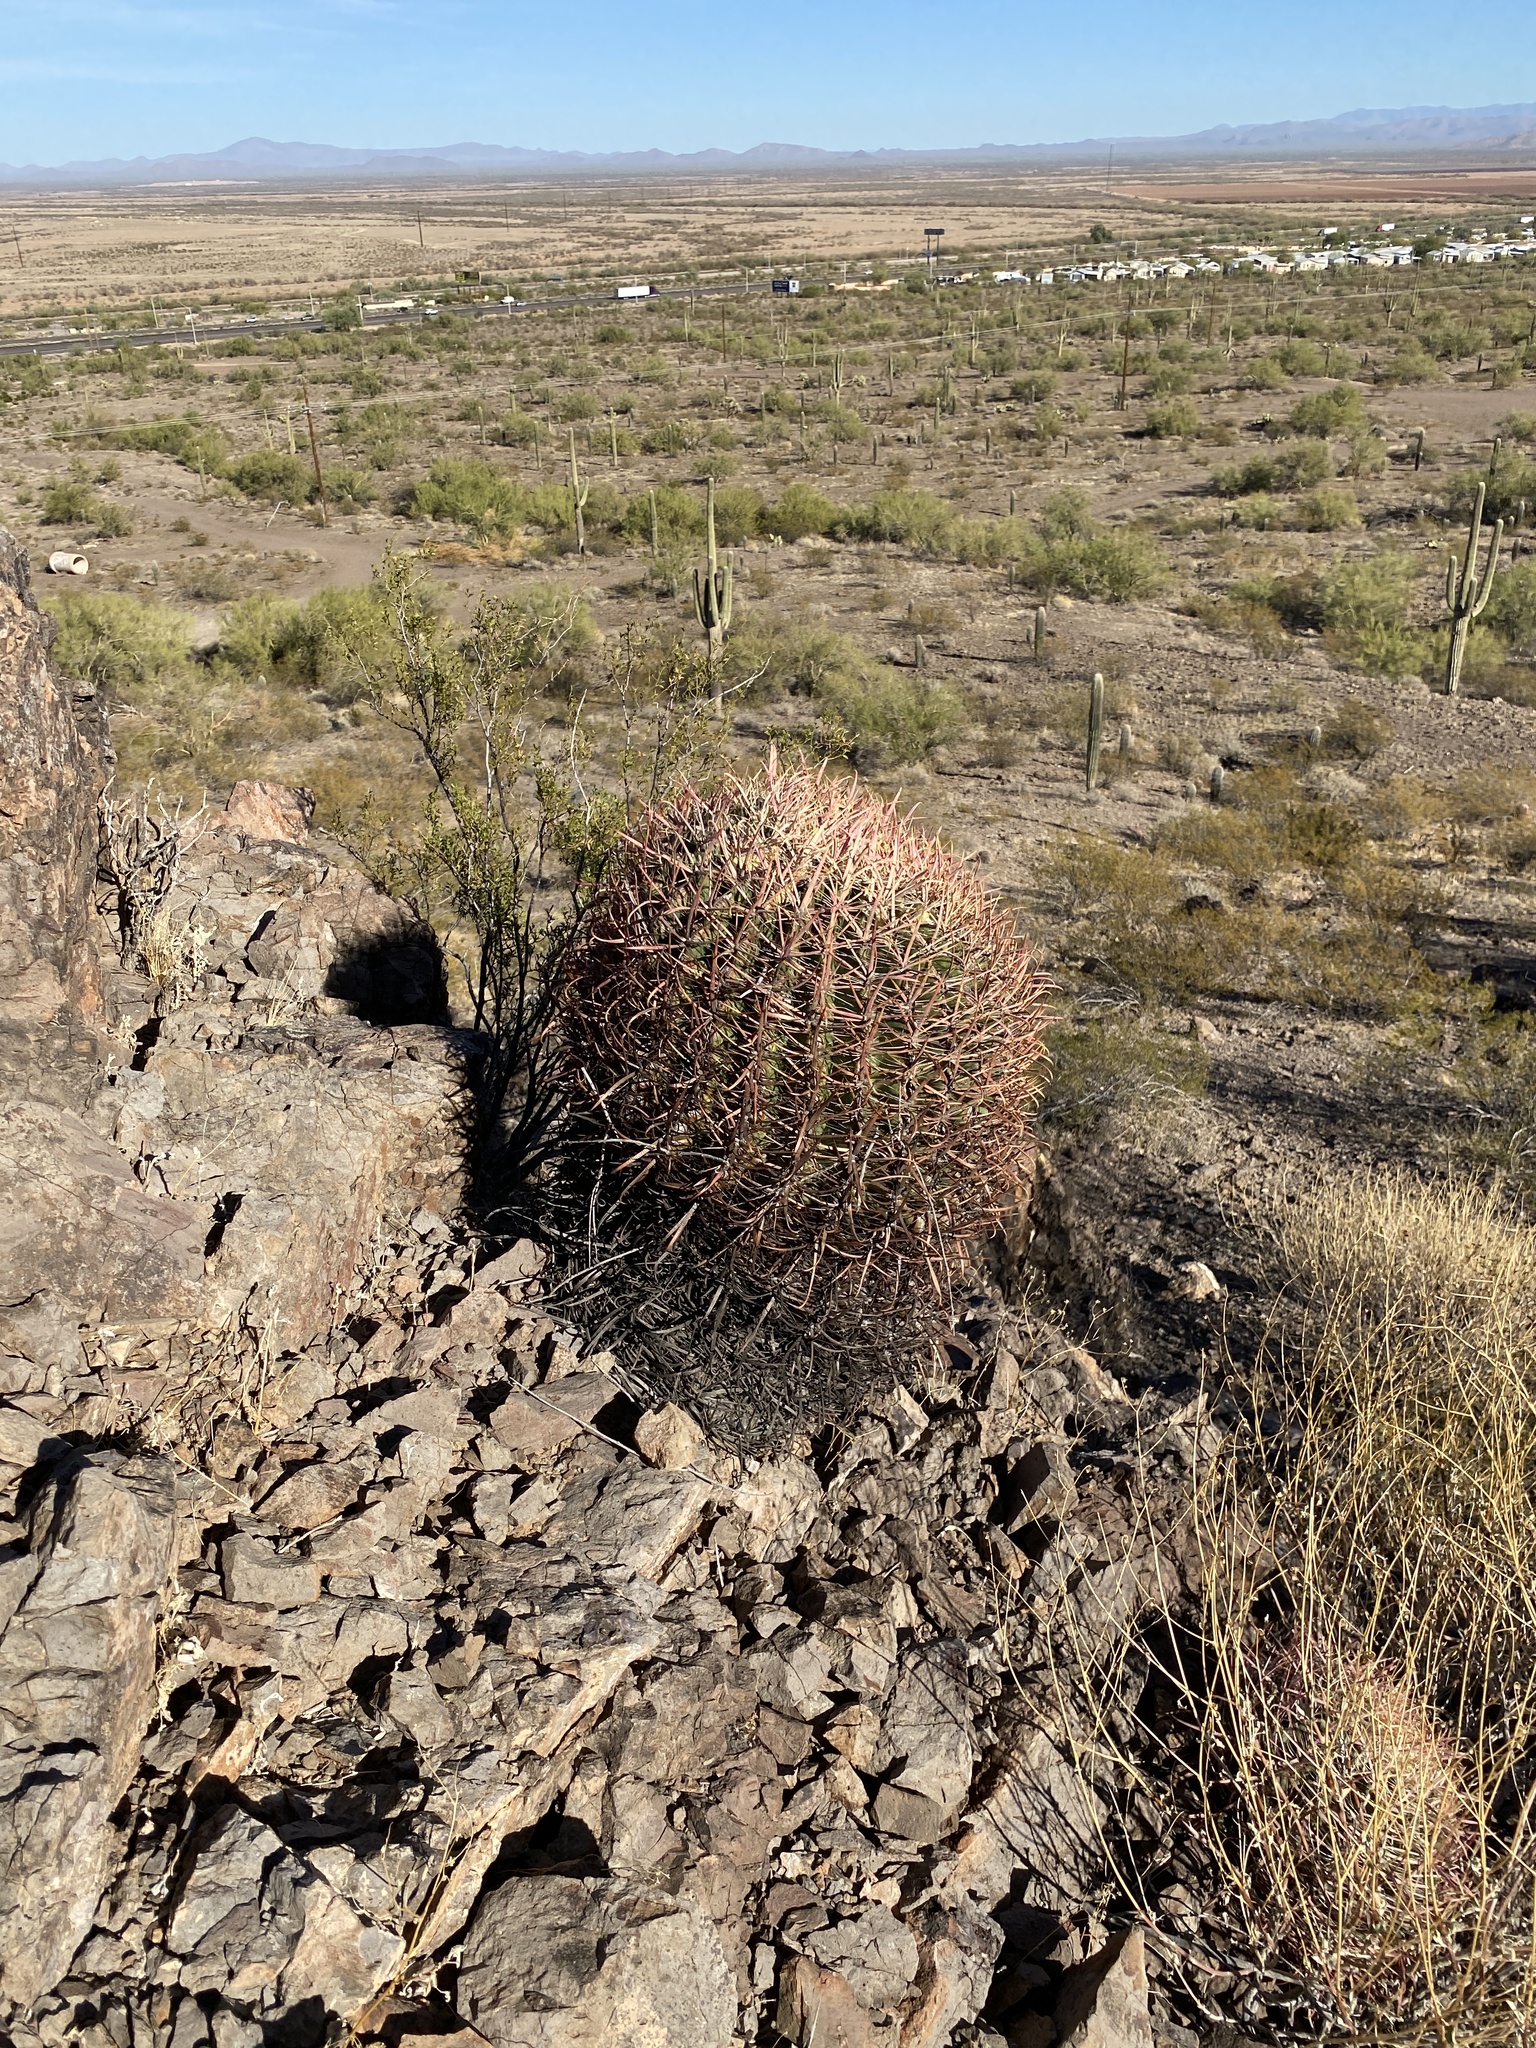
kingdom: Plantae
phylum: Tracheophyta
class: Magnoliopsida
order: Caryophyllales
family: Cactaceae
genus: Ferocactus
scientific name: Ferocactus cylindraceus
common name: California barrel cactus
